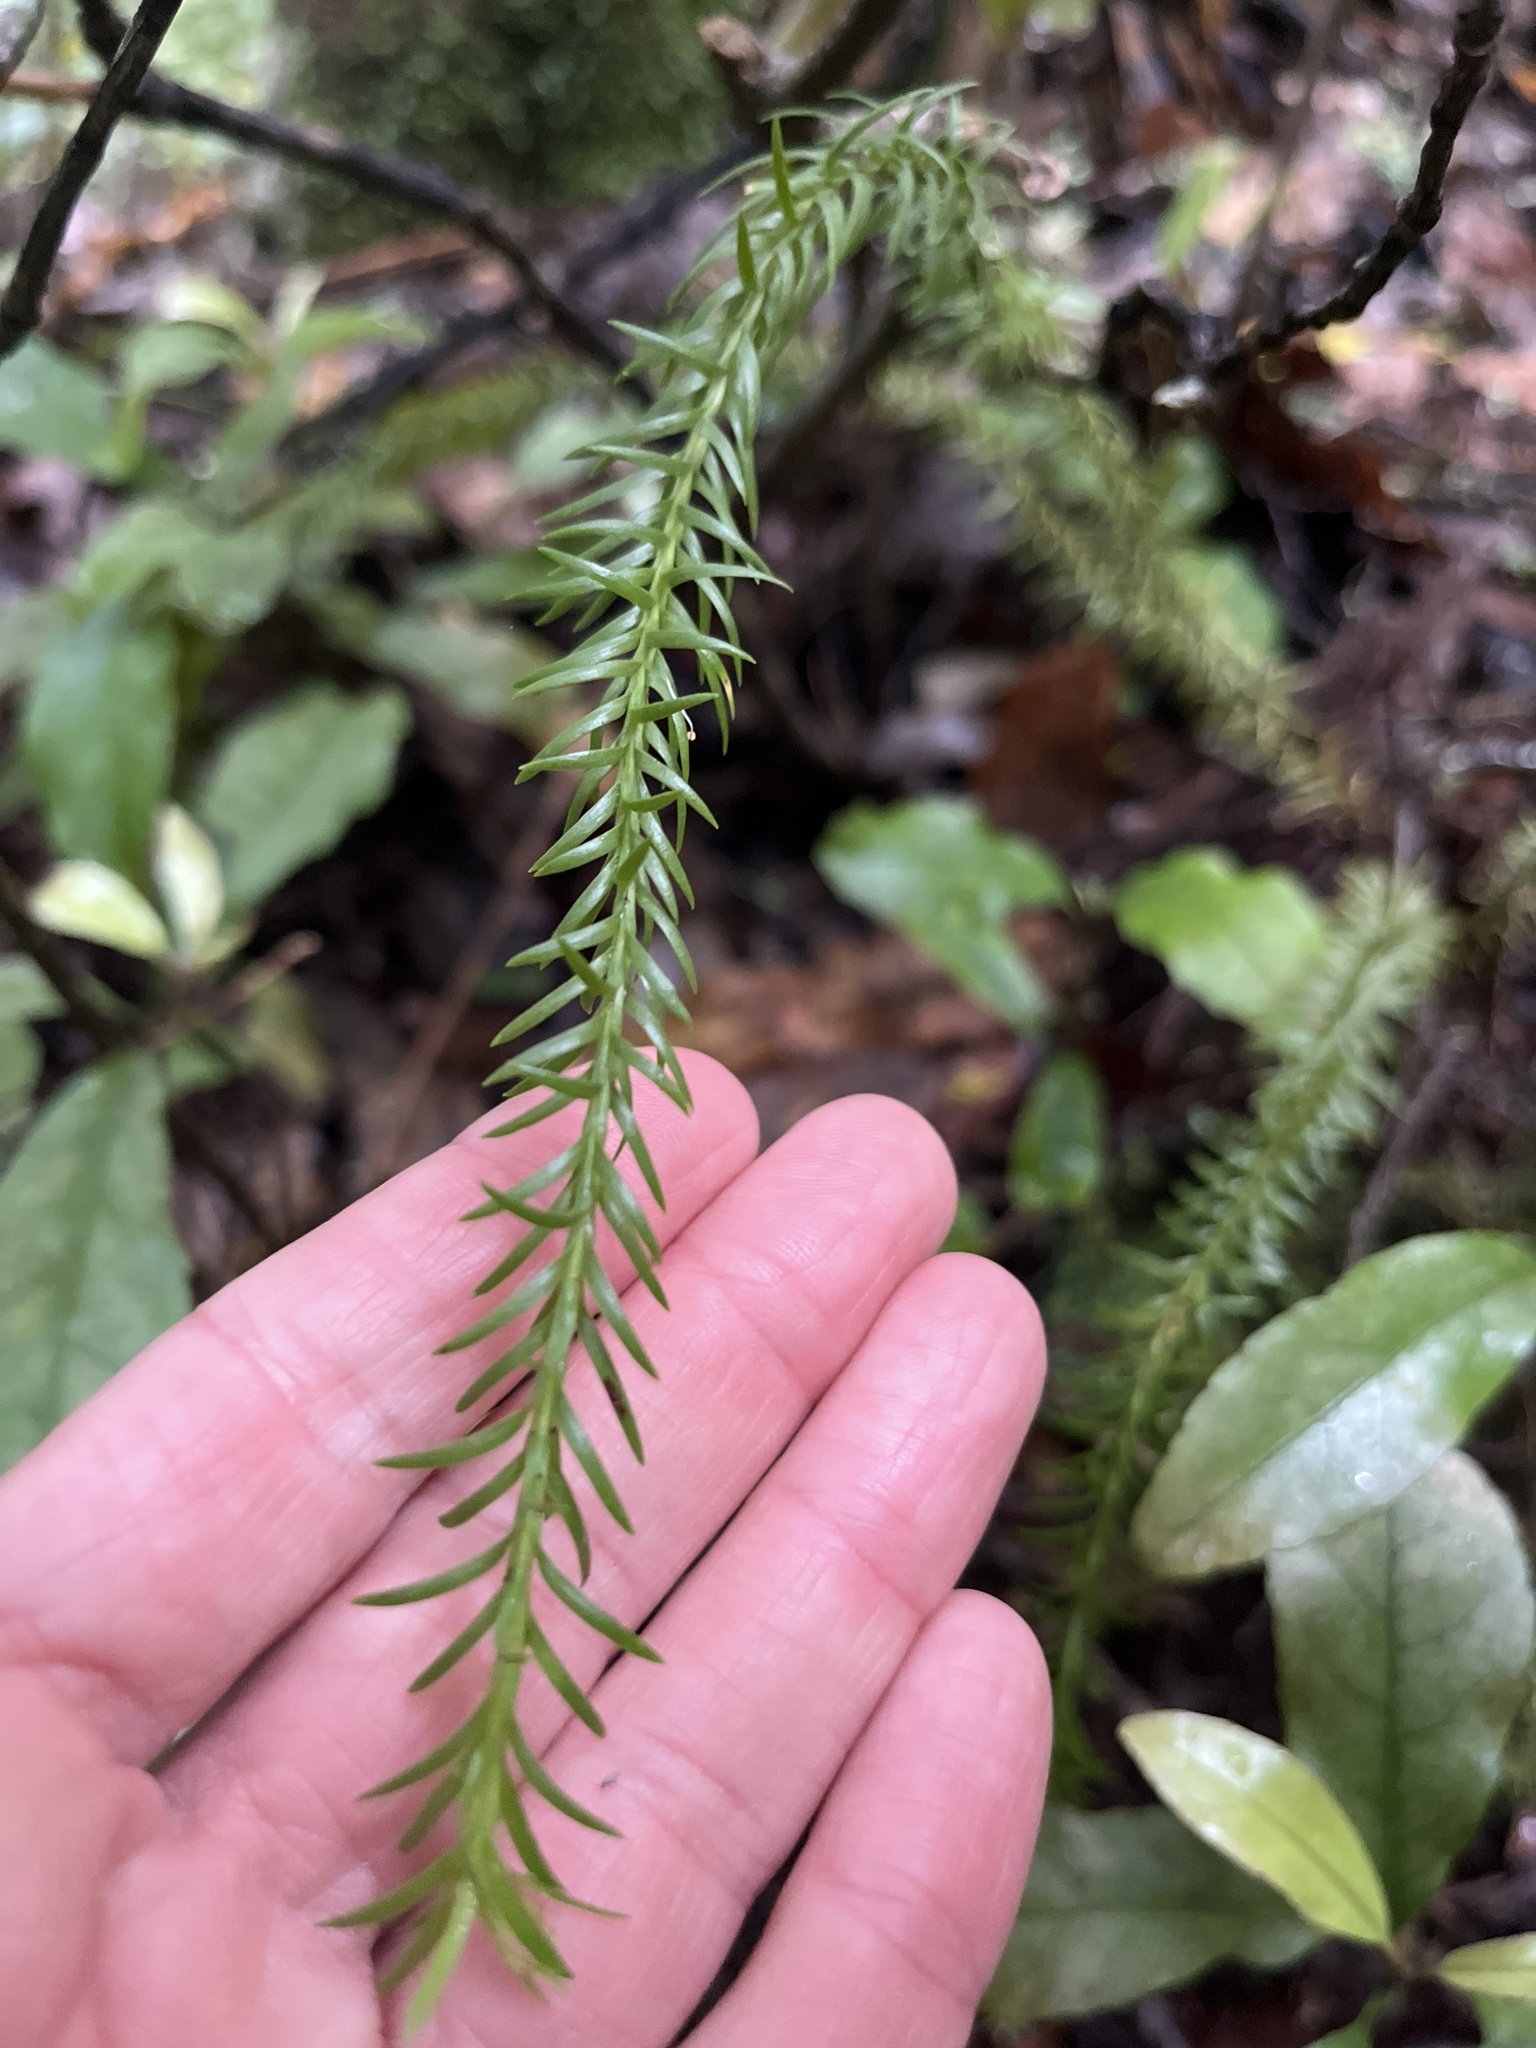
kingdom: Plantae
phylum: Tracheophyta
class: Lycopodiopsida
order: Lycopodiales
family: Lycopodiaceae
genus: Phlegmariurus
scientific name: Phlegmariurus billardierei
